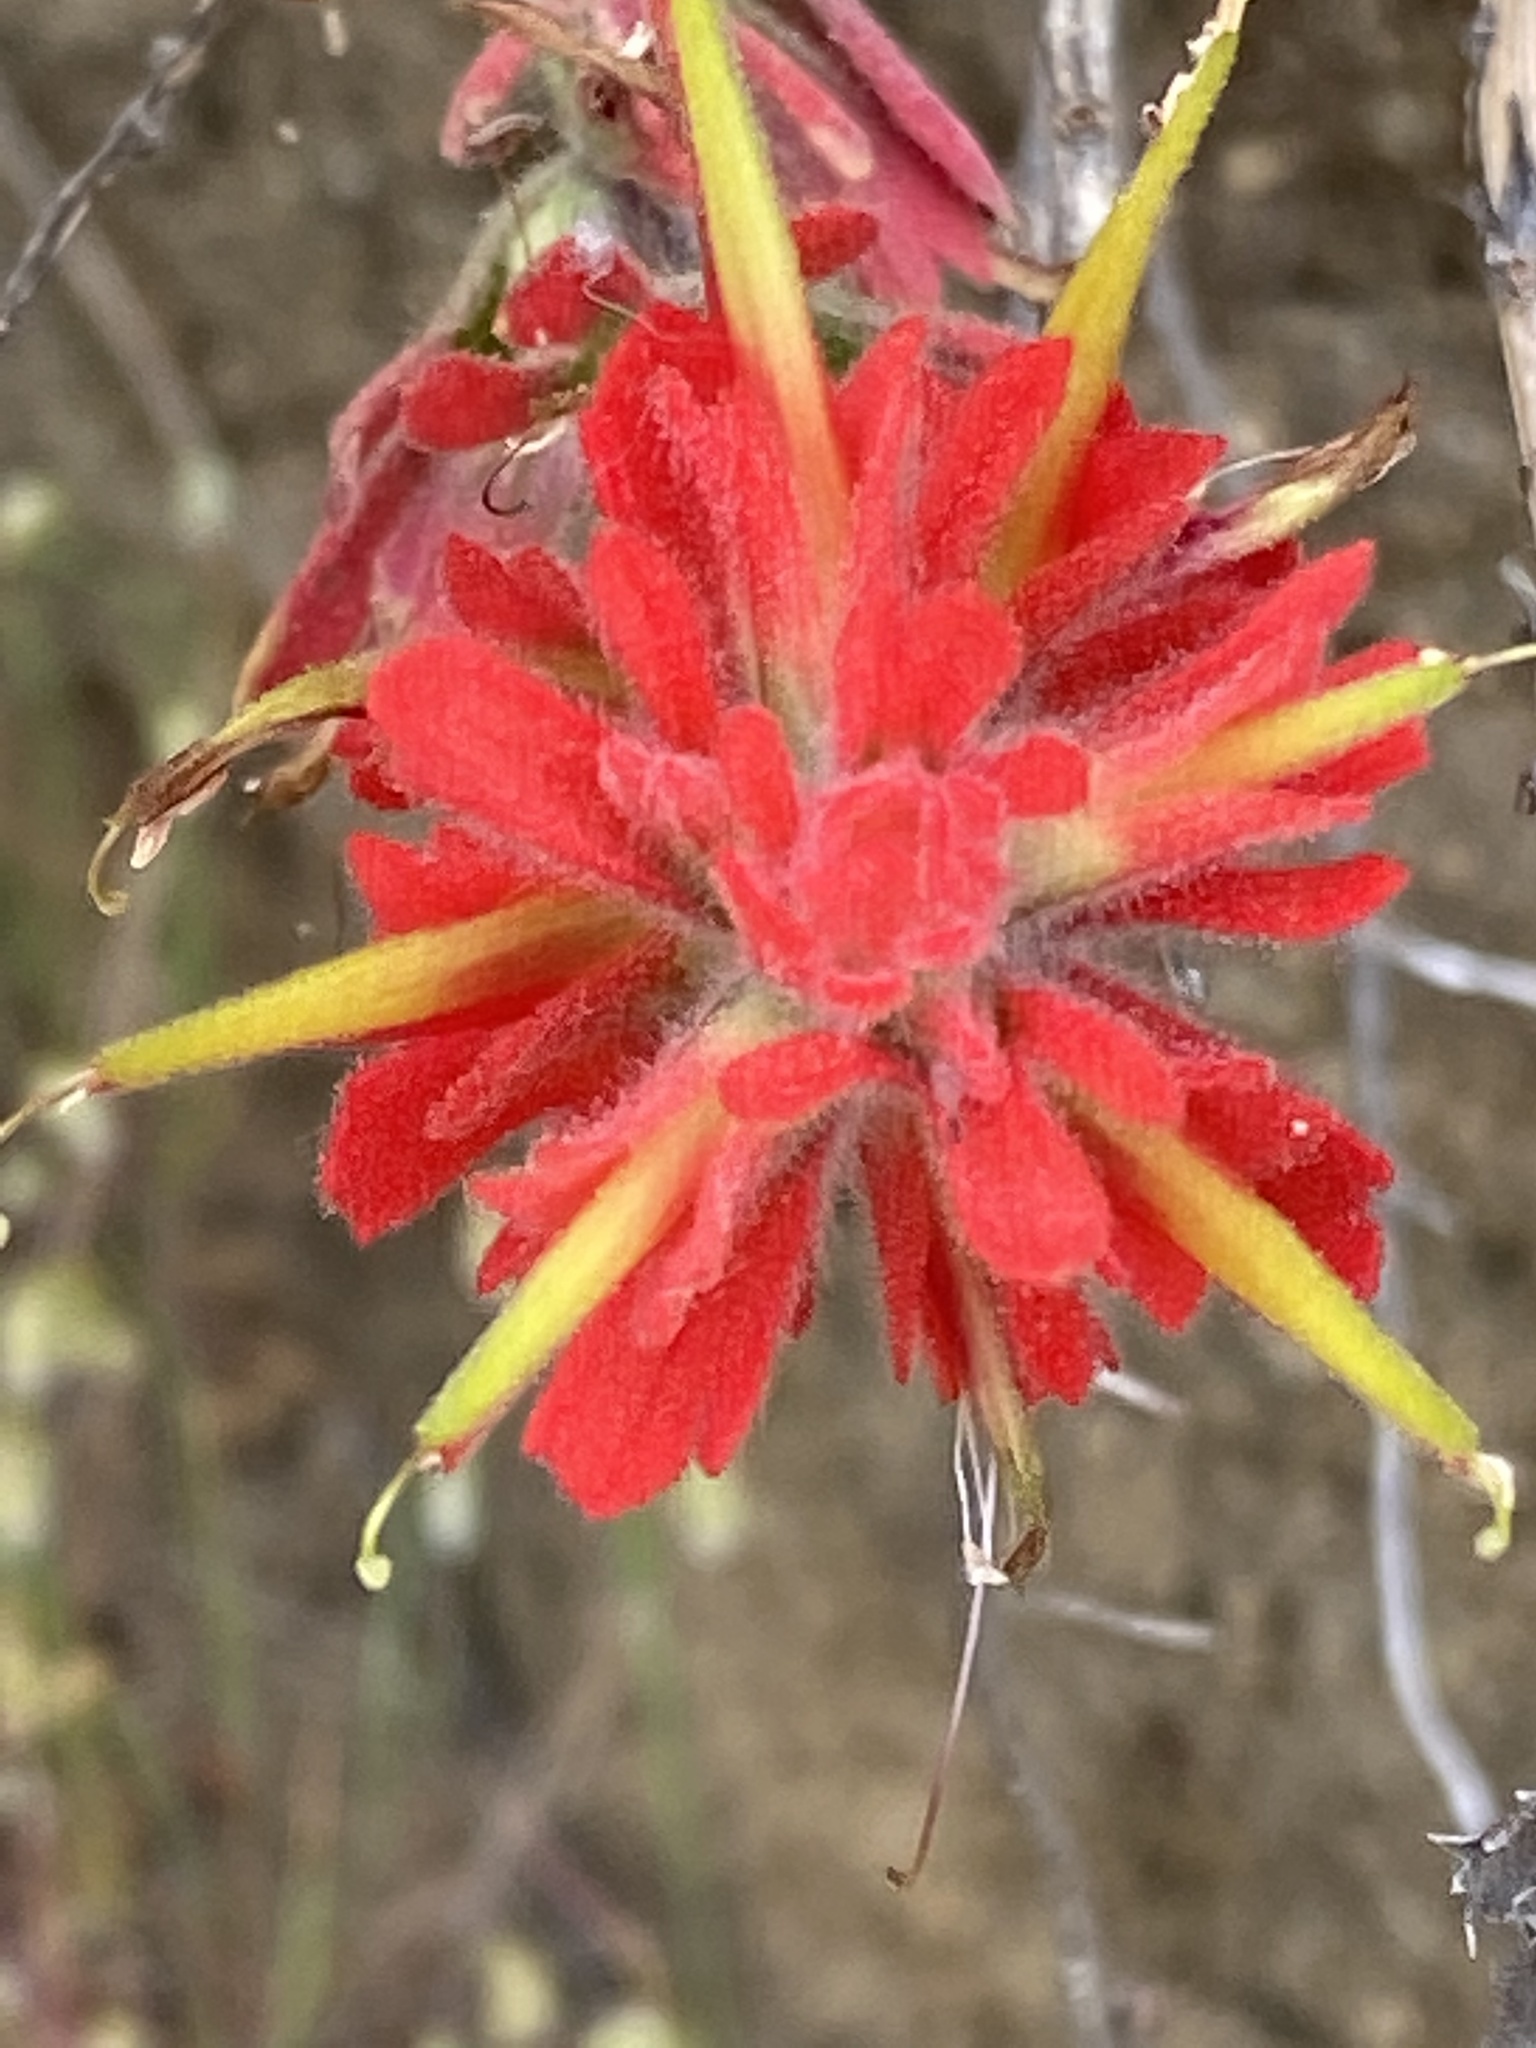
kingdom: Plantae
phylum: Tracheophyta
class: Magnoliopsida
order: Lamiales
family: Orobanchaceae
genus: Castilleja
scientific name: Castilleja affinis
